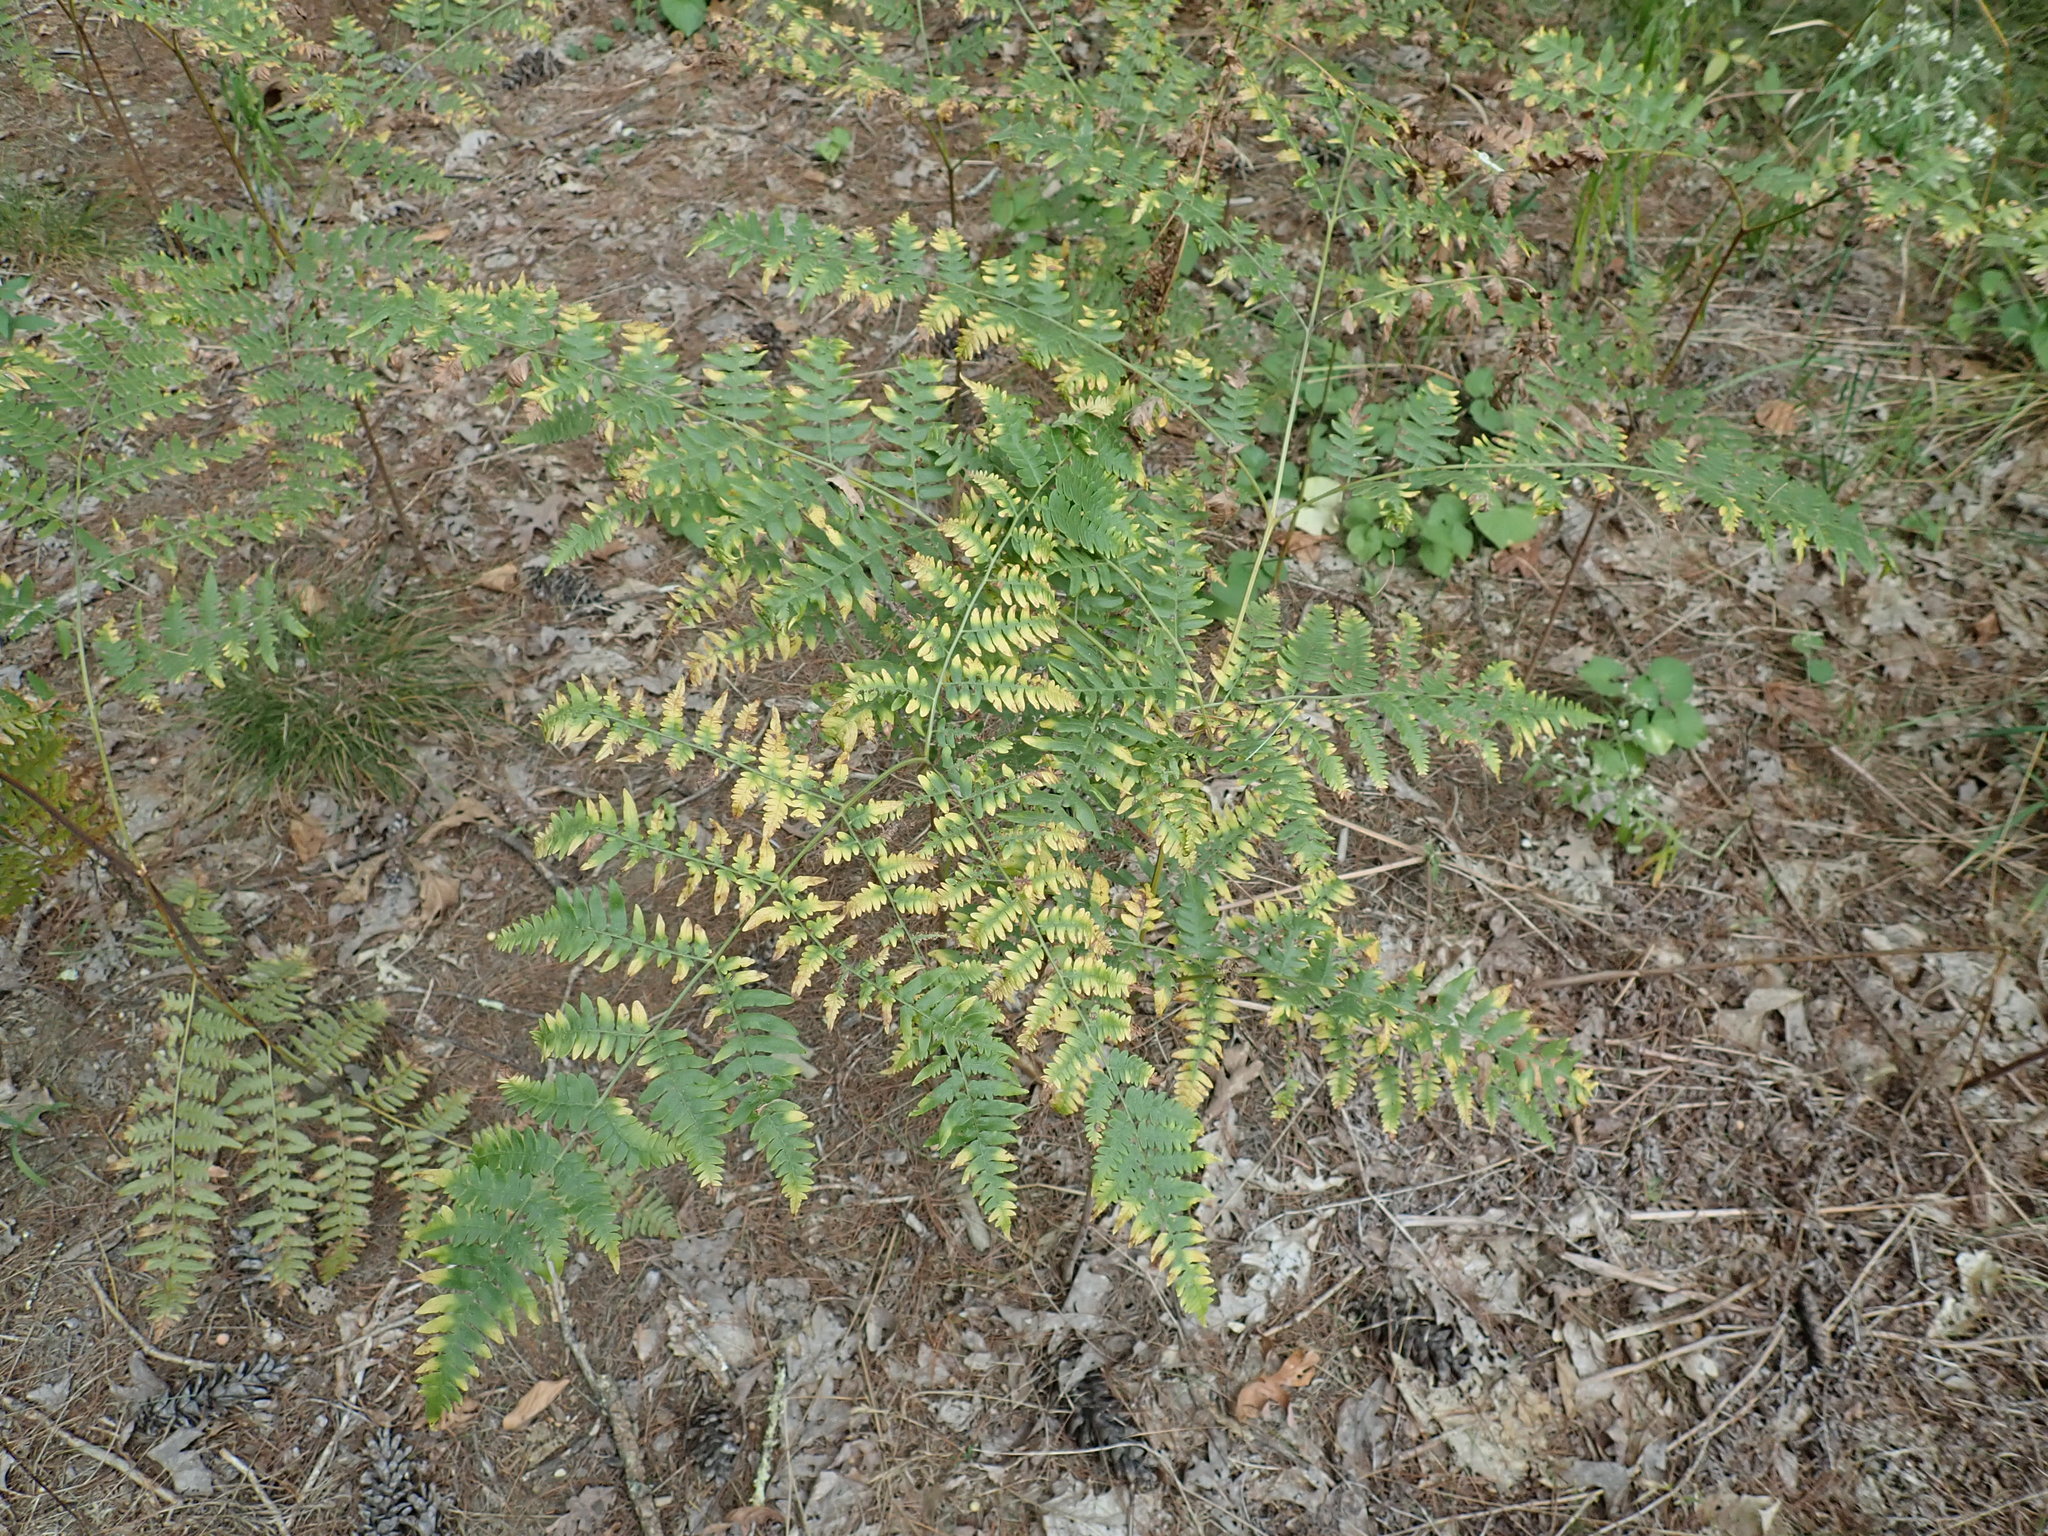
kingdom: Plantae
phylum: Tracheophyta
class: Polypodiopsida
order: Polypodiales
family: Dennstaedtiaceae
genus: Pteridium
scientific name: Pteridium aquilinum
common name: Bracken
